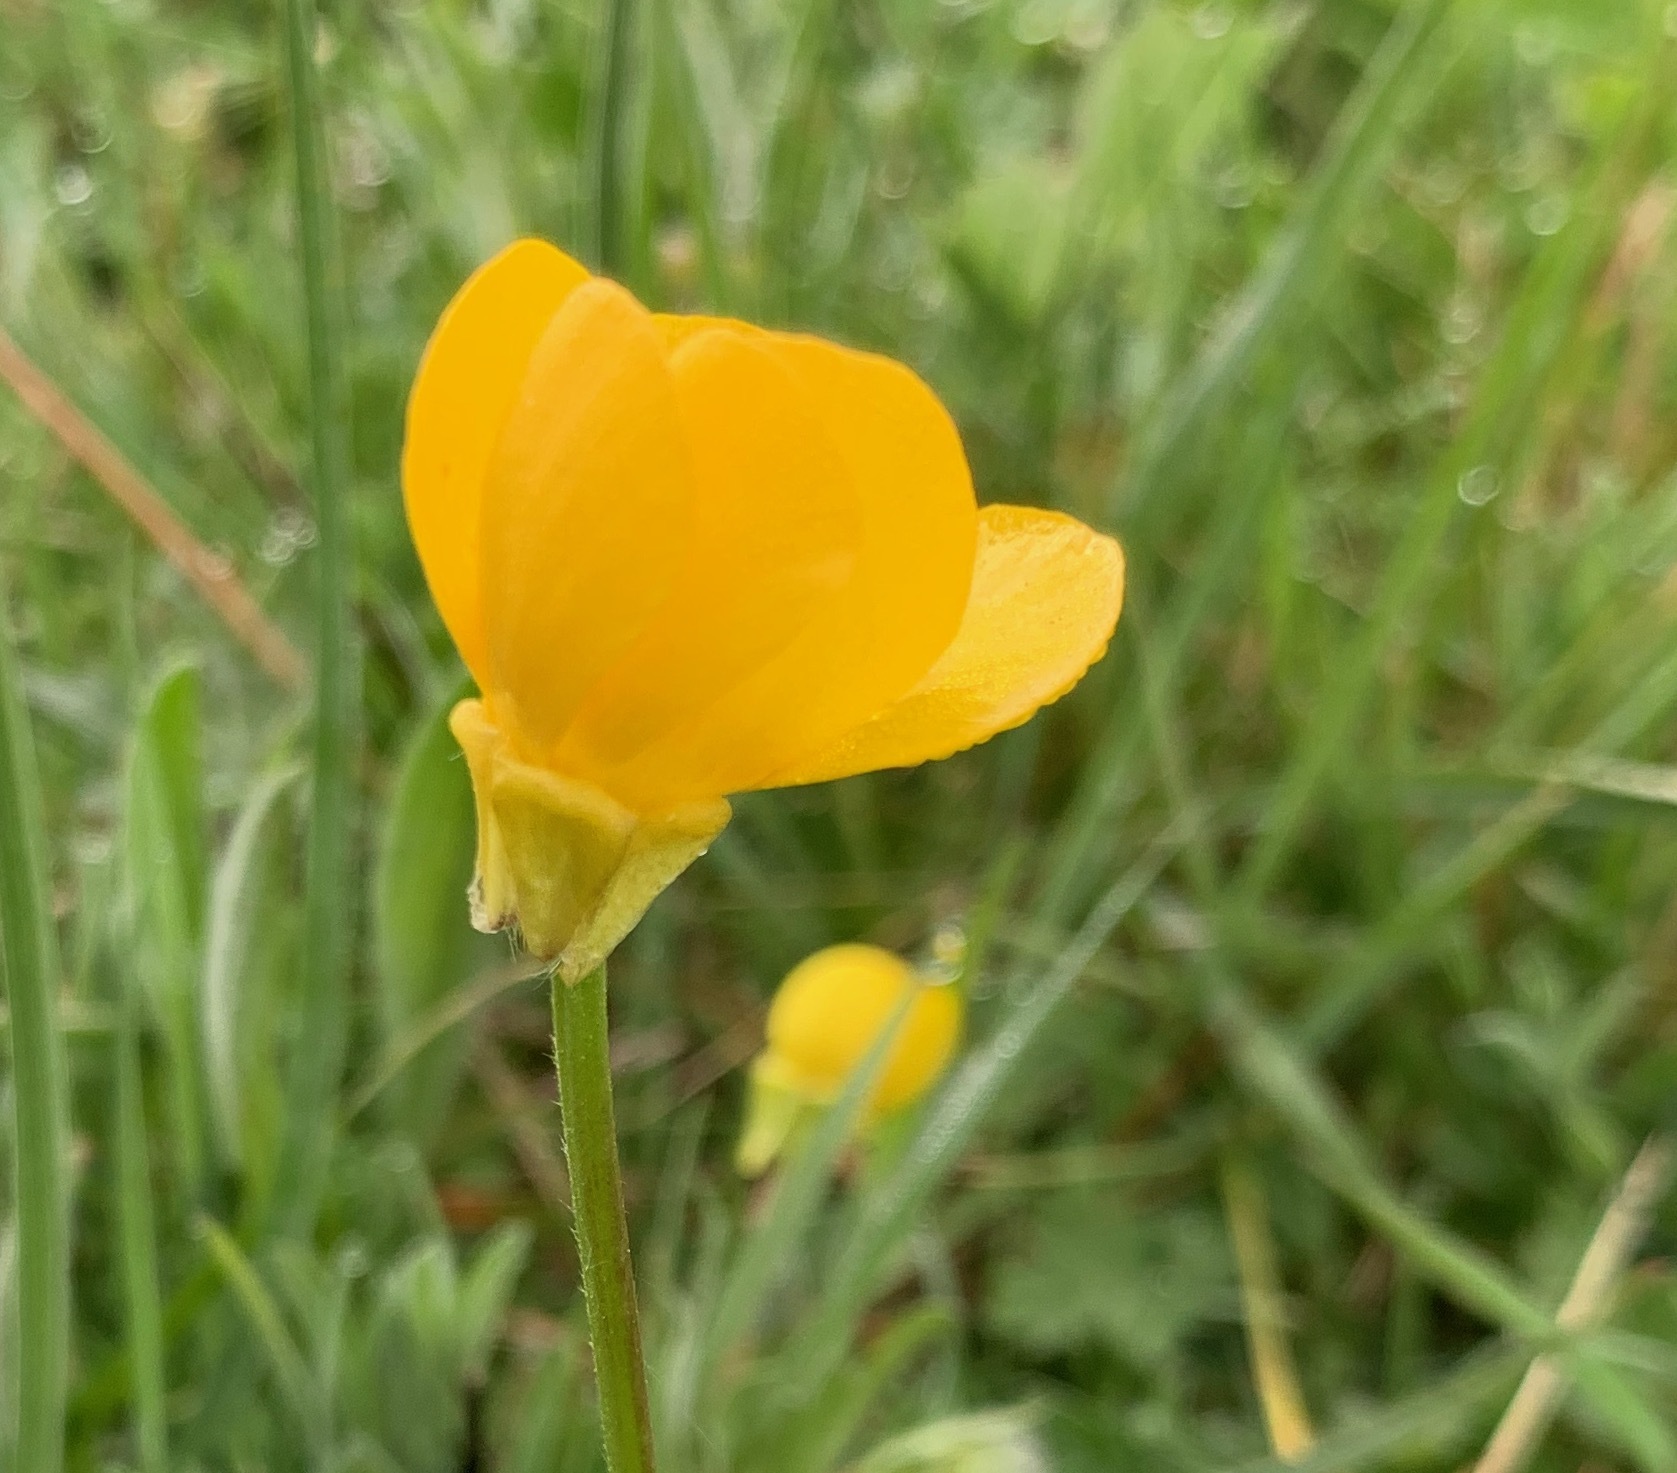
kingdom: Plantae
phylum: Tracheophyta
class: Magnoliopsida
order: Ranunculales
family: Ranunculaceae
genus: Ranunculus
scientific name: Ranunculus bulbosus
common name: Bulbous buttercup
